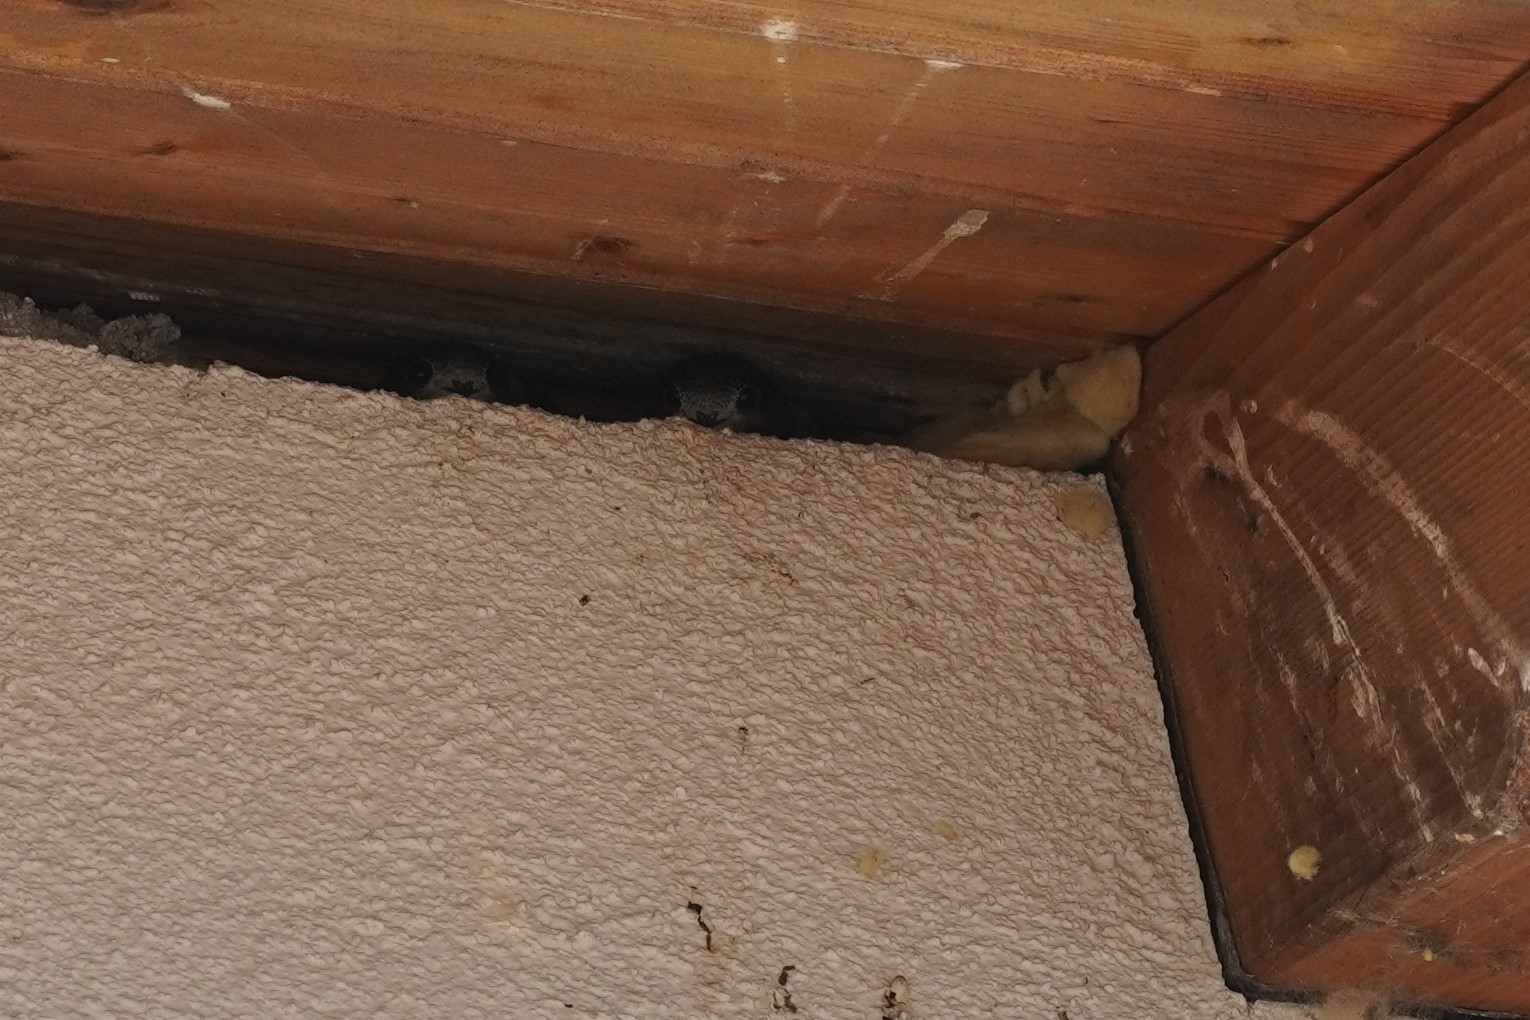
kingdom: Animalia
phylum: Chordata
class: Aves
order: Apodiformes
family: Apodidae
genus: Apus
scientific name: Apus apus
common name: Common swift
